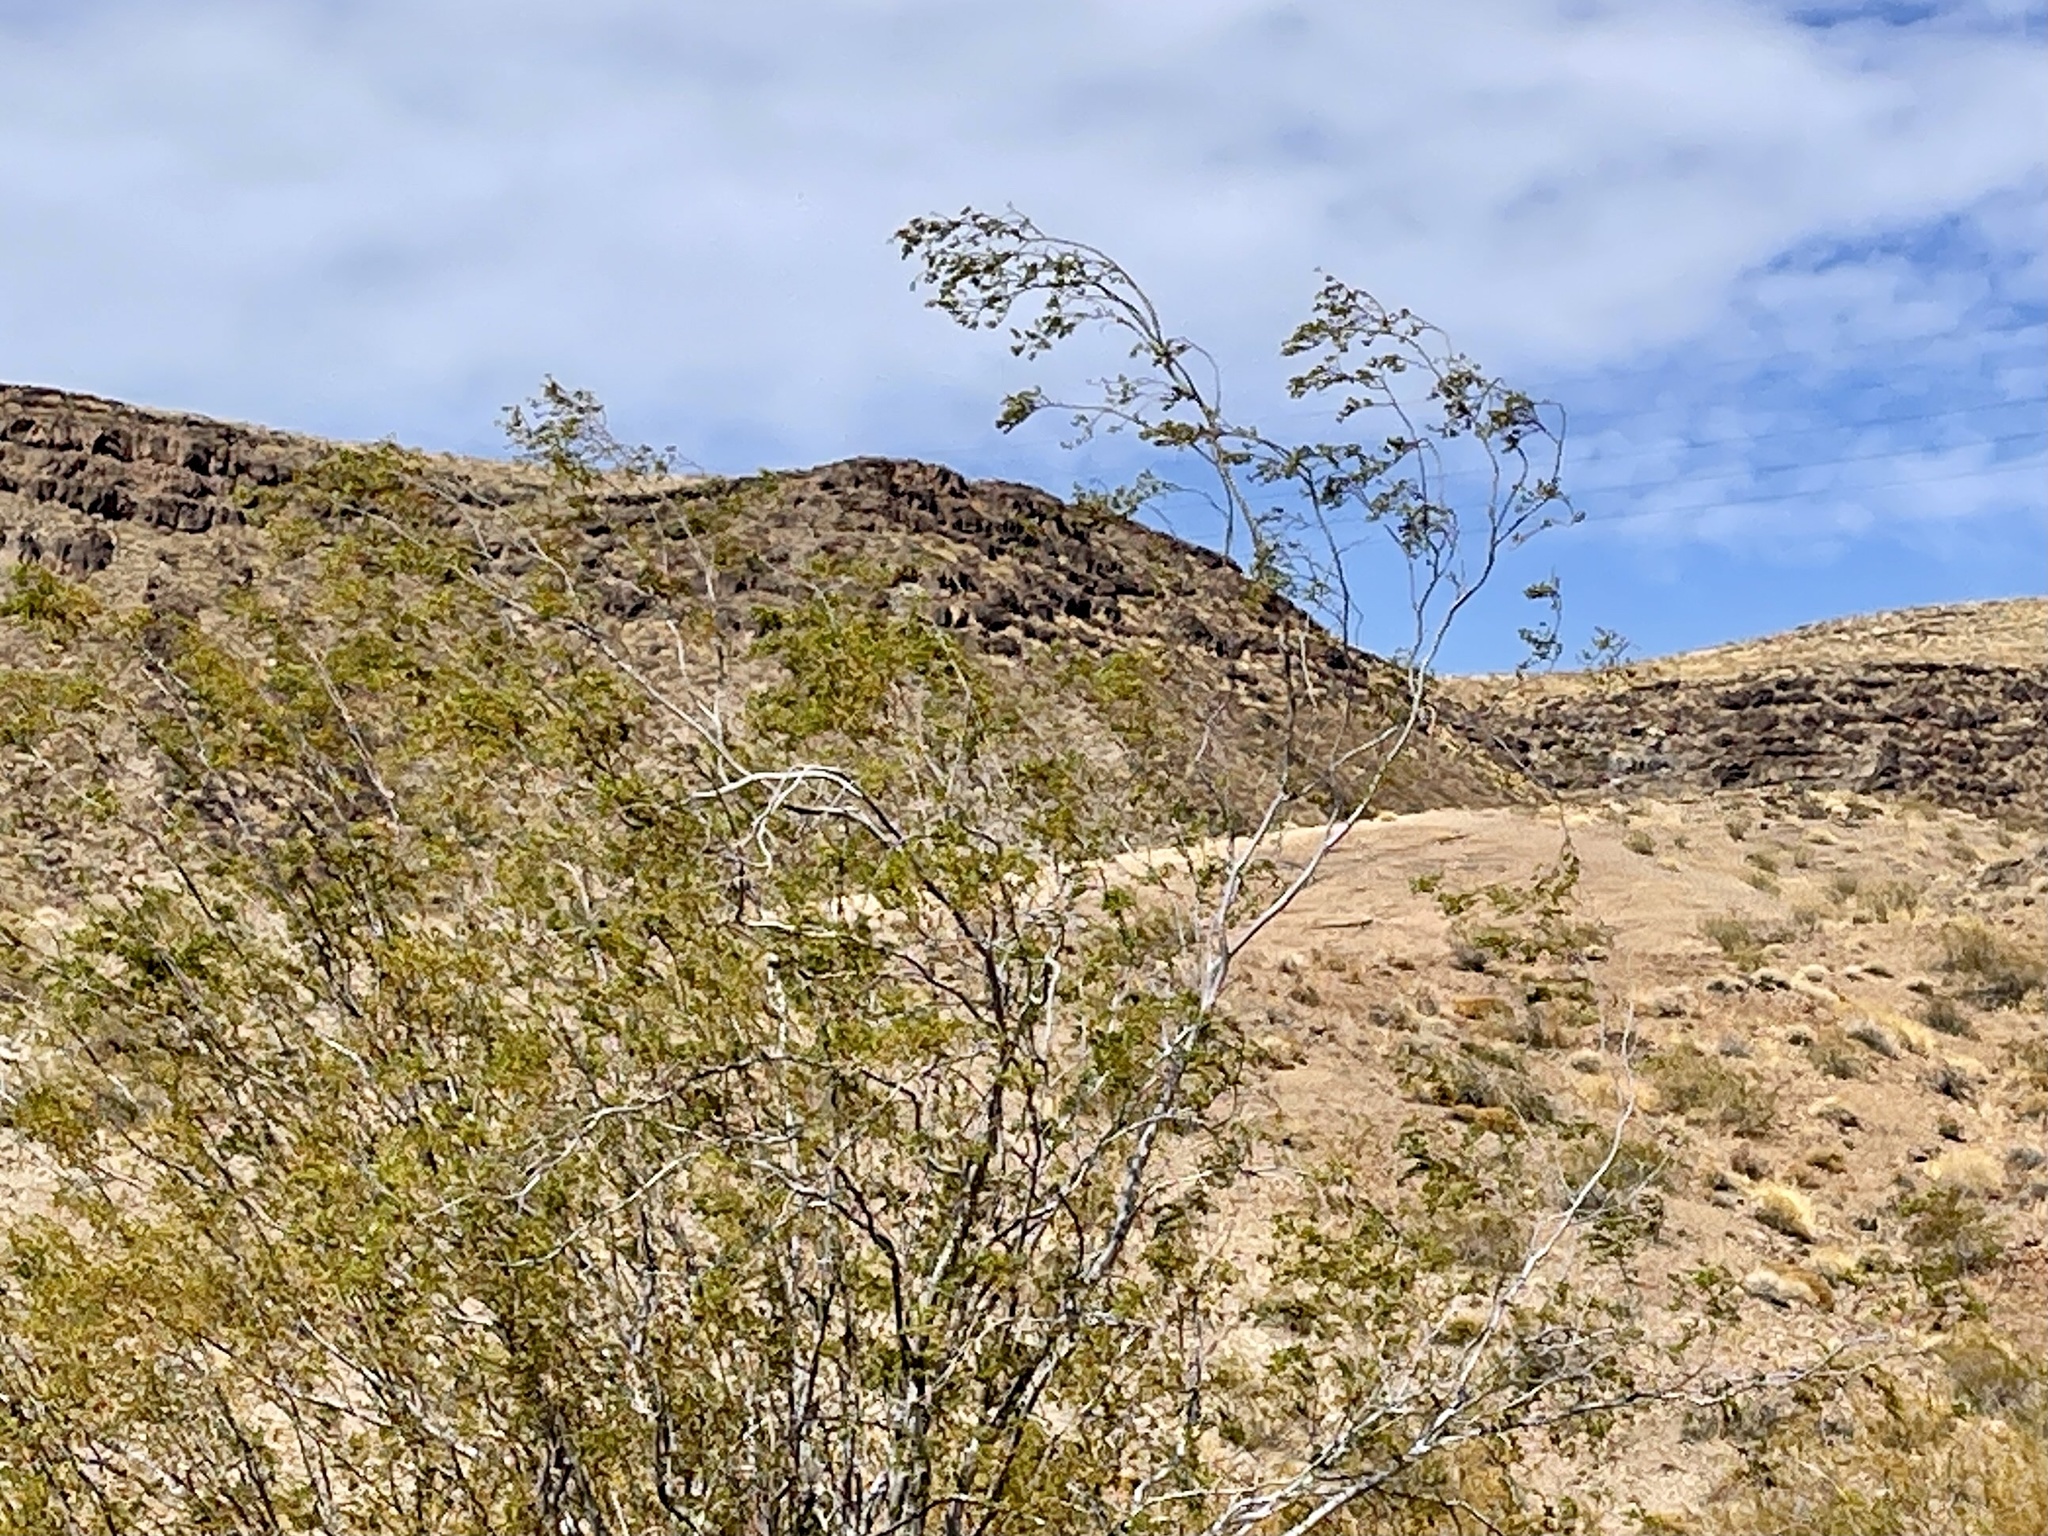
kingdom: Plantae
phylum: Tracheophyta
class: Magnoliopsida
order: Zygophyllales
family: Zygophyllaceae
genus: Larrea
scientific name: Larrea tridentata
